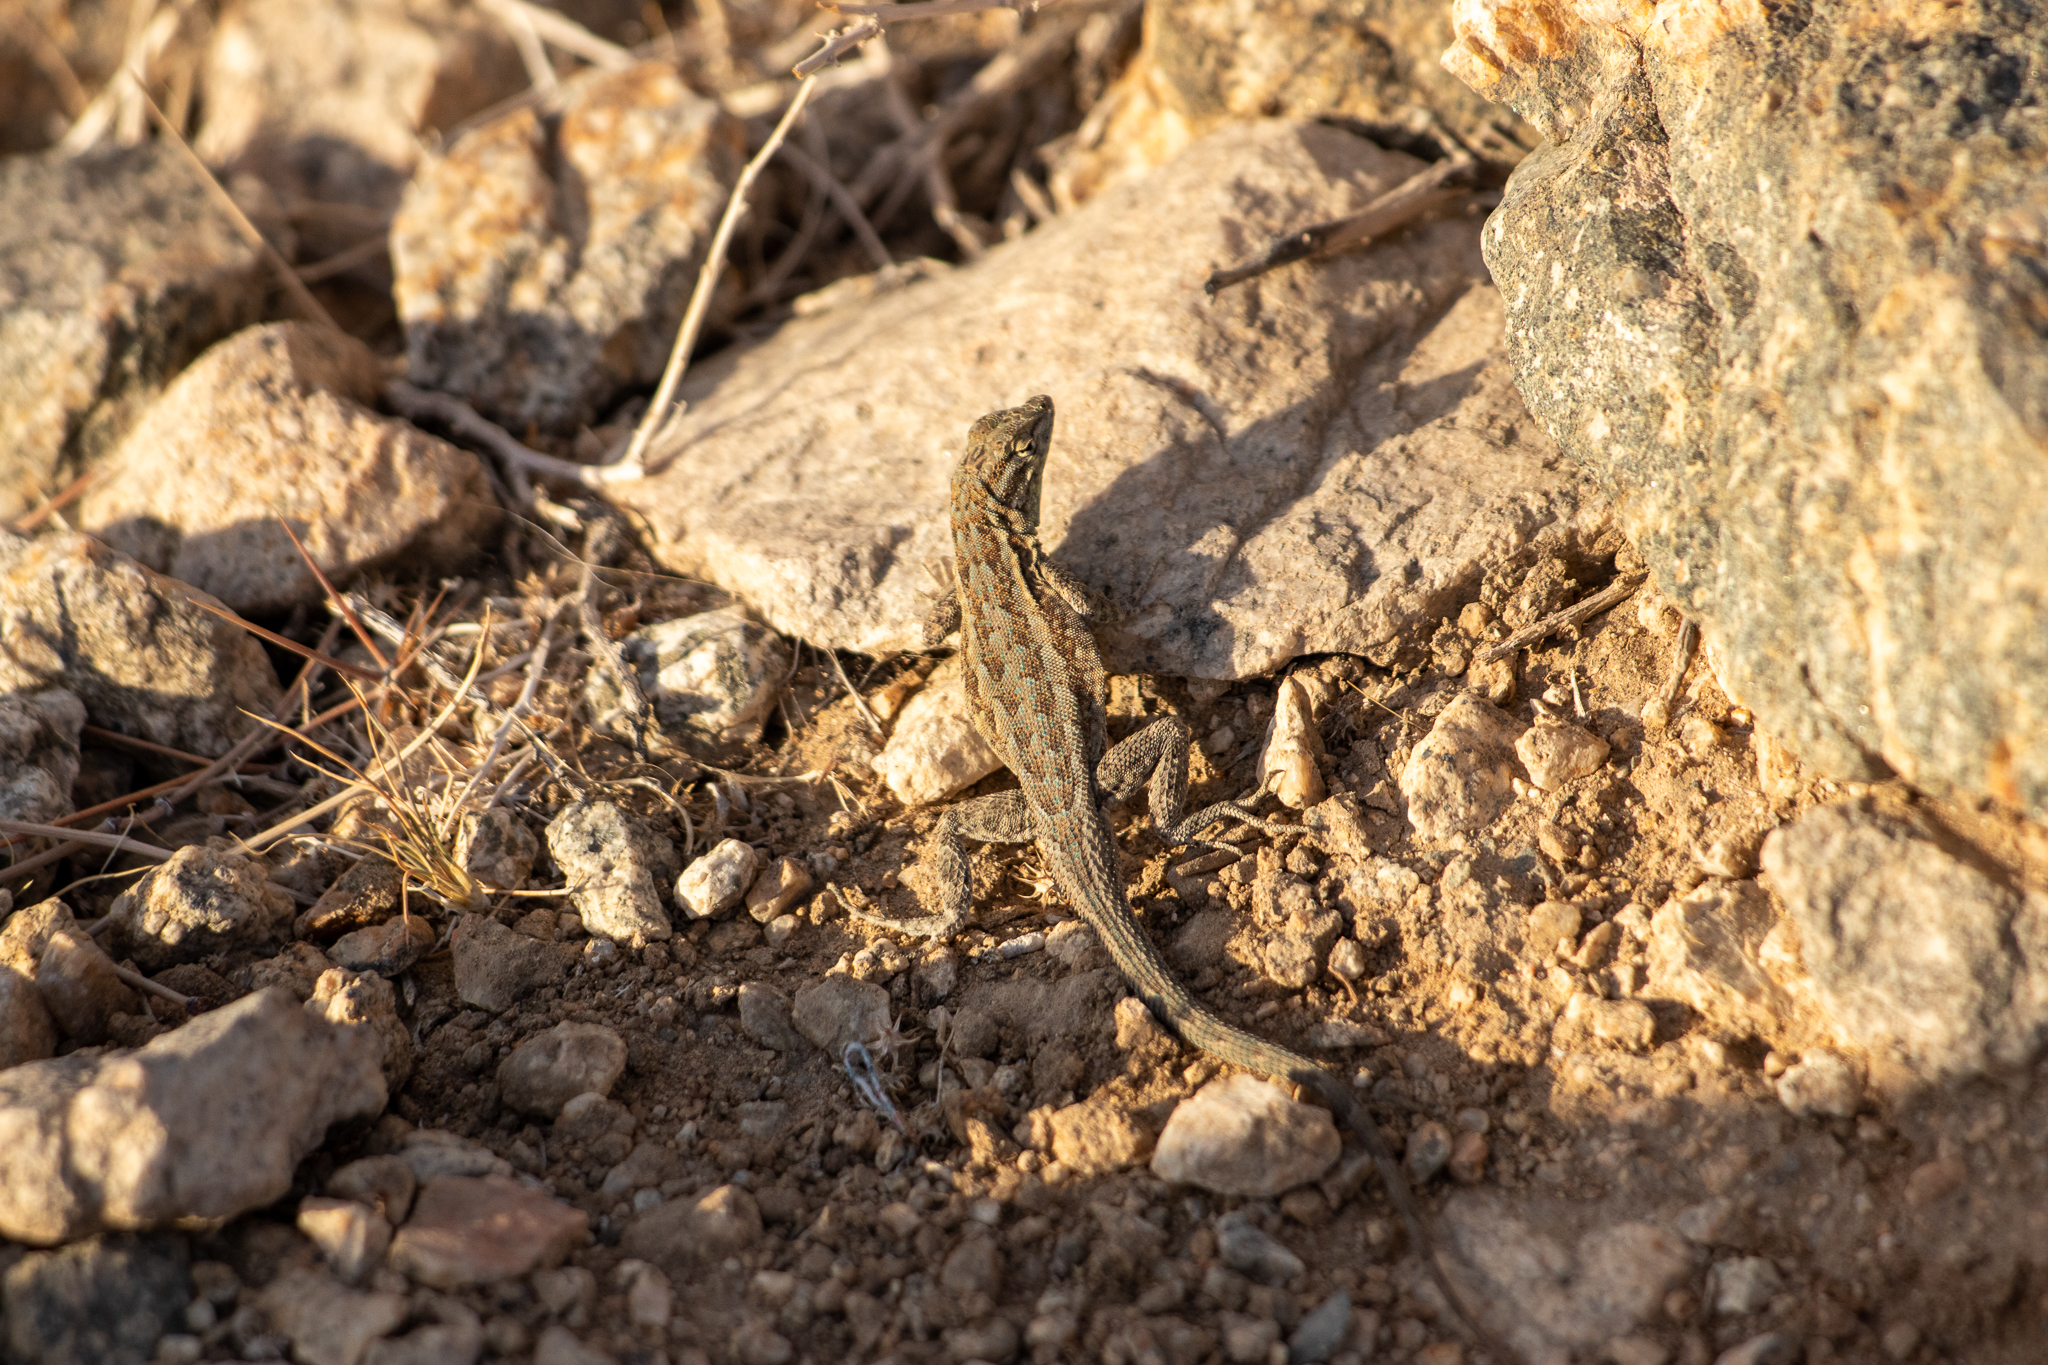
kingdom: Animalia
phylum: Chordata
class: Squamata
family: Phrynosomatidae
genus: Uta
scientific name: Uta stansburiana
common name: Side-blotched lizard
